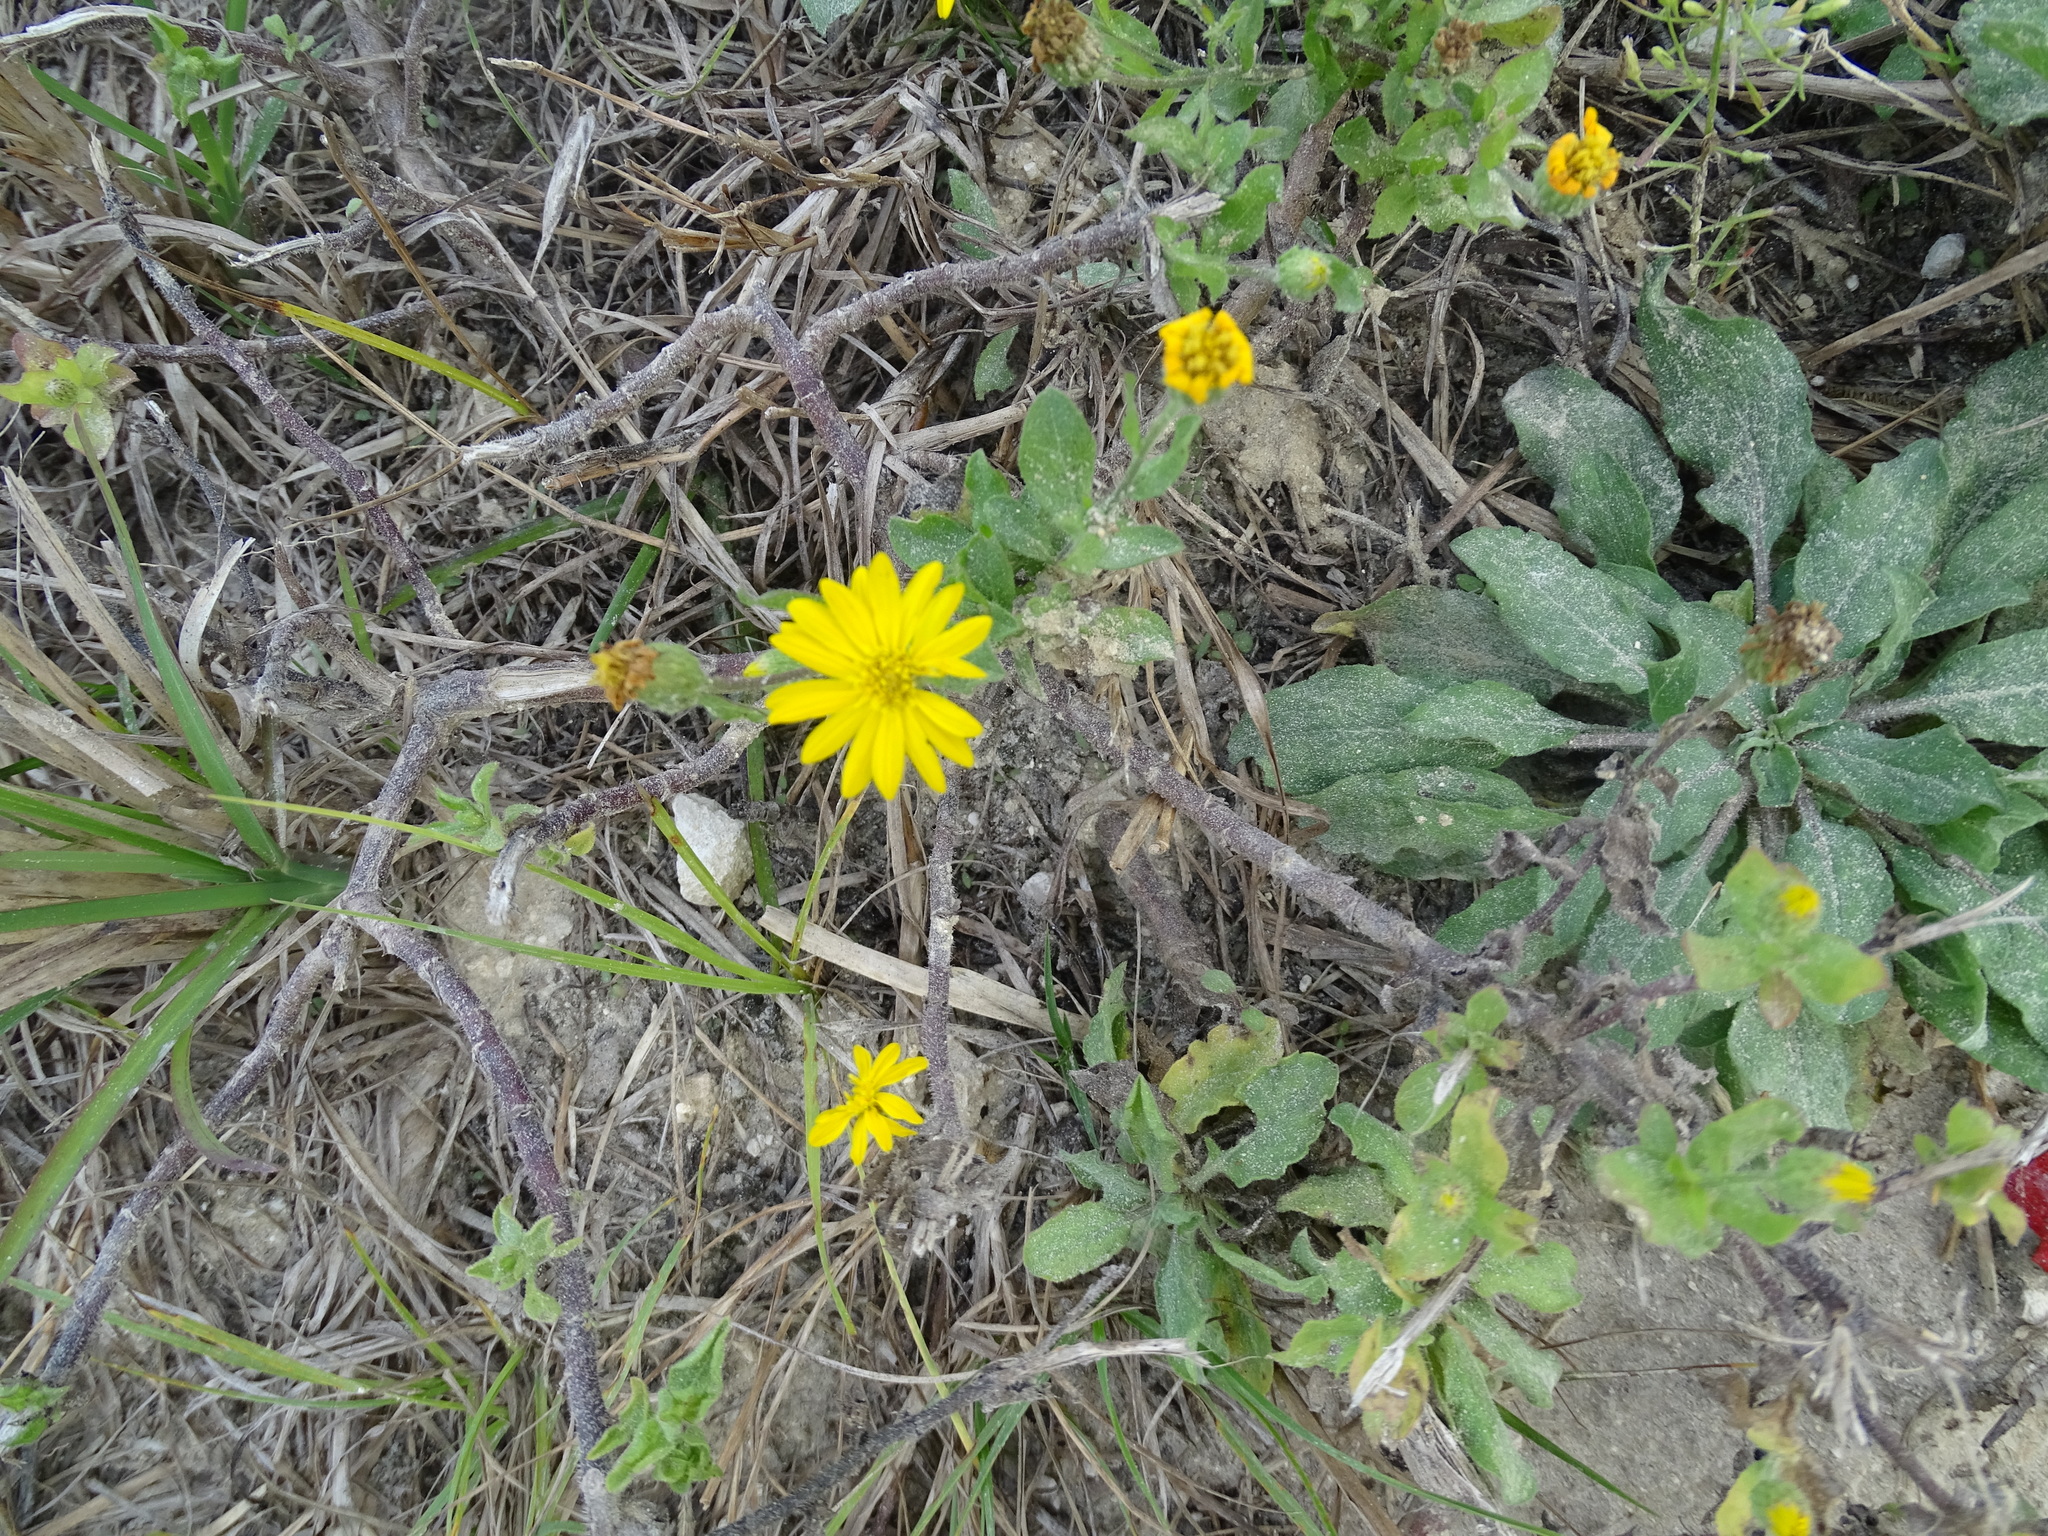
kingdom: Plantae
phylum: Tracheophyta
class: Magnoliopsida
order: Asterales
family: Asteraceae
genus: Heterotheca
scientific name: Heterotheca subaxillaris
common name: Camphorweed
